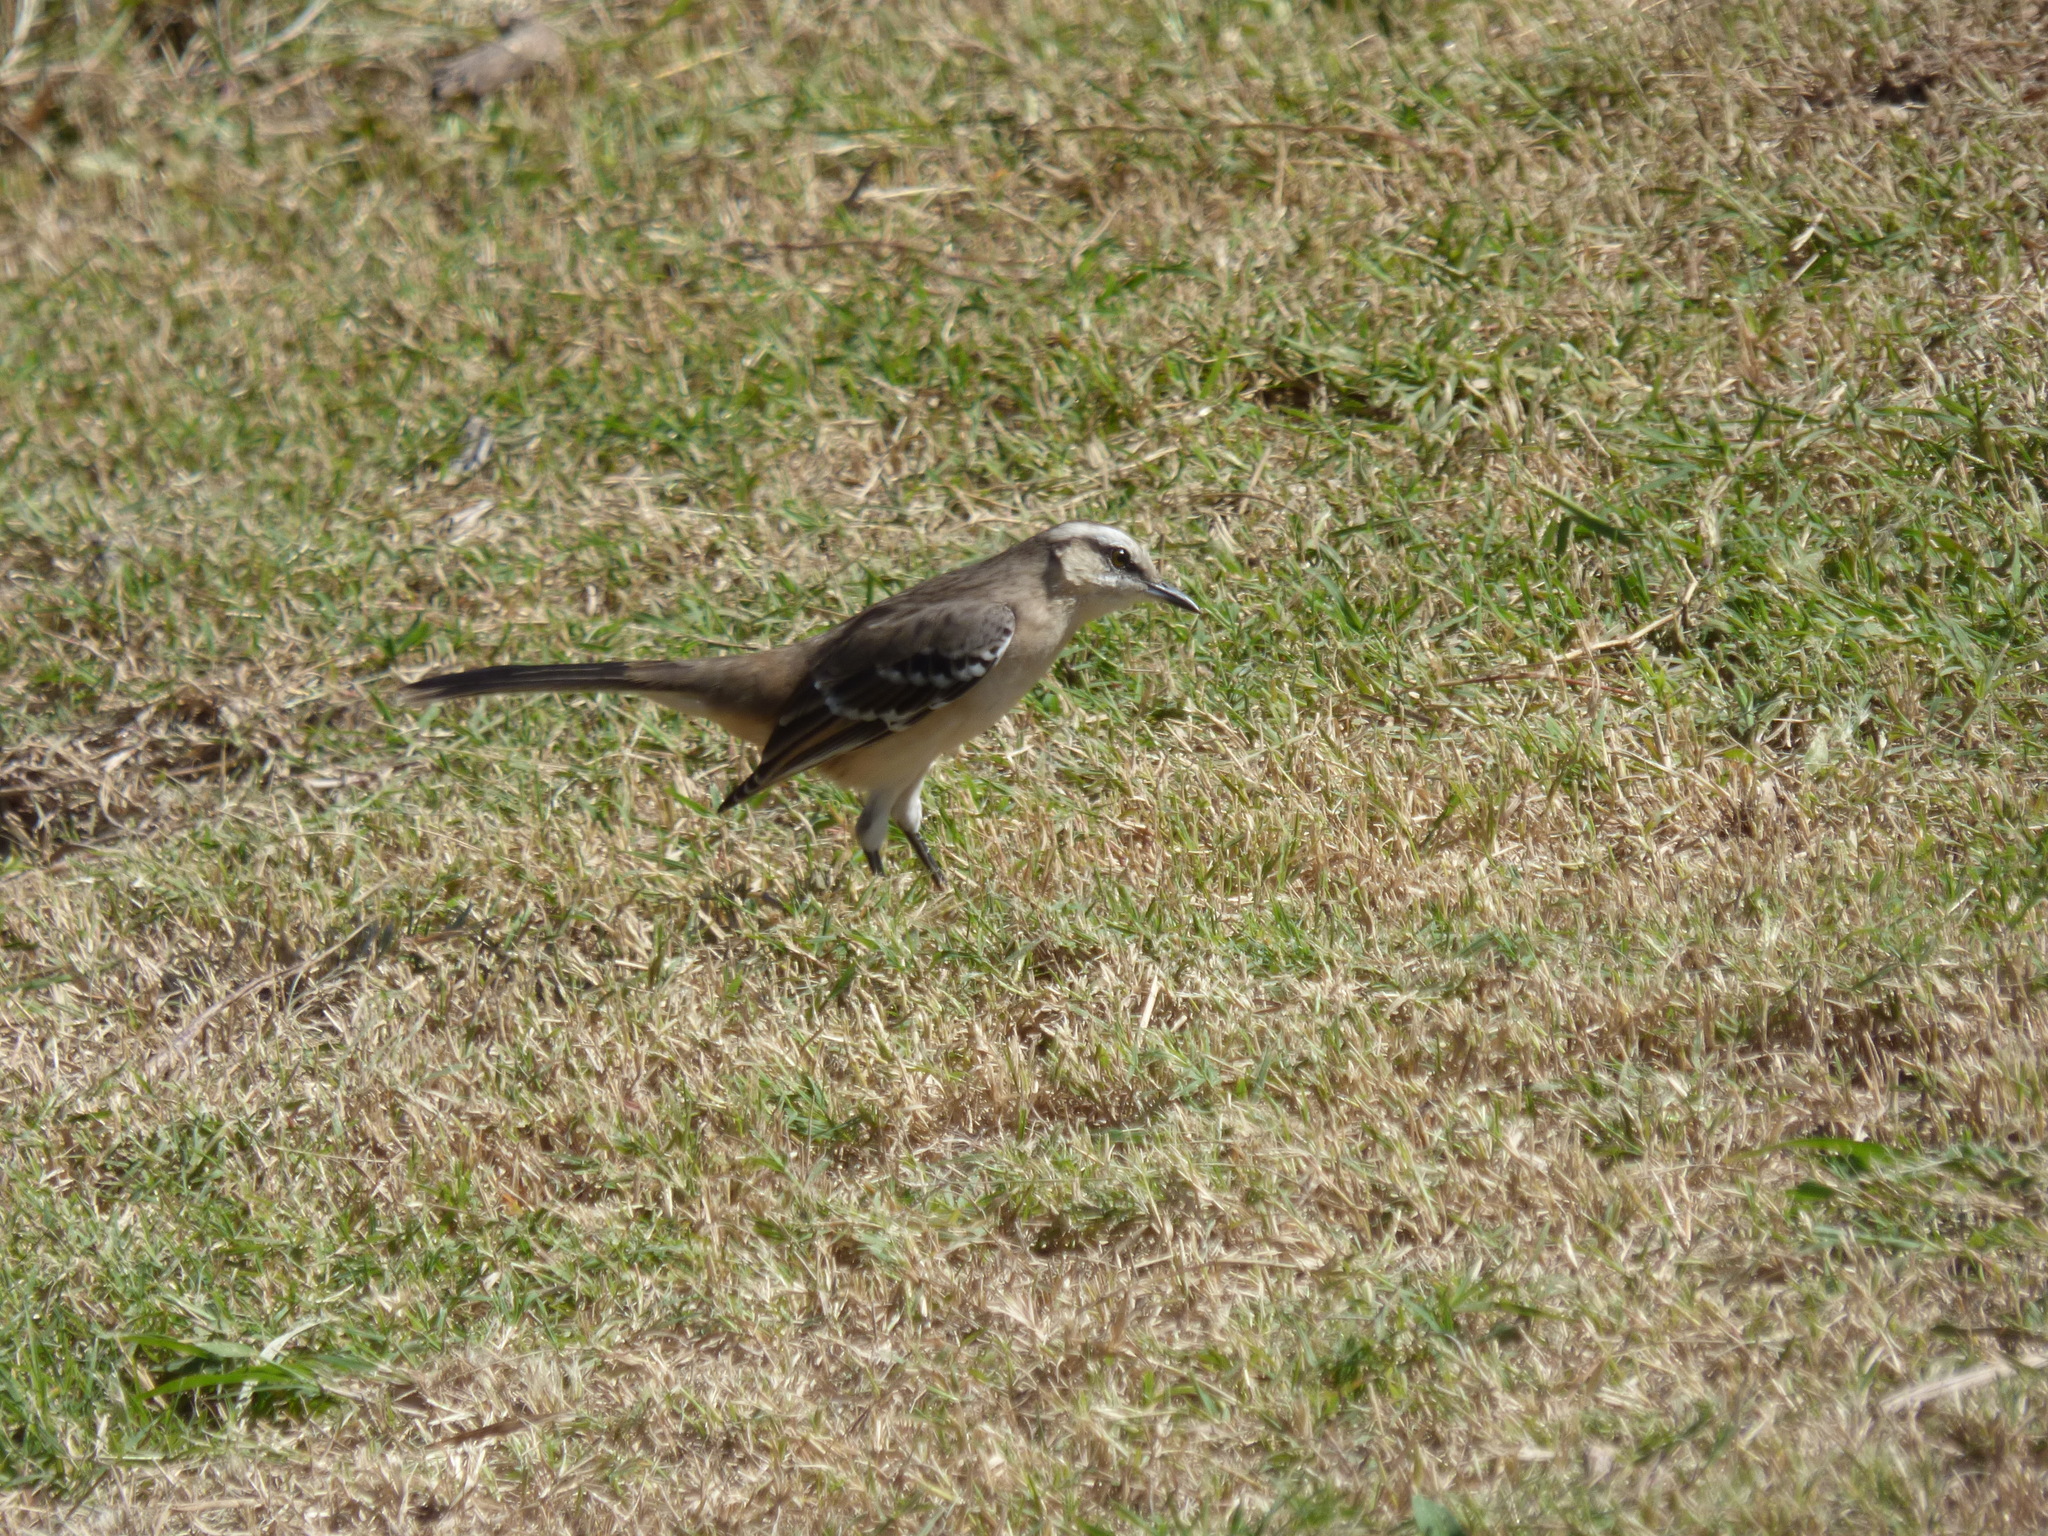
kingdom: Animalia
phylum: Chordata
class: Aves
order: Passeriformes
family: Mimidae
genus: Mimus
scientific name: Mimus saturninus
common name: Chalk-browed mockingbird
